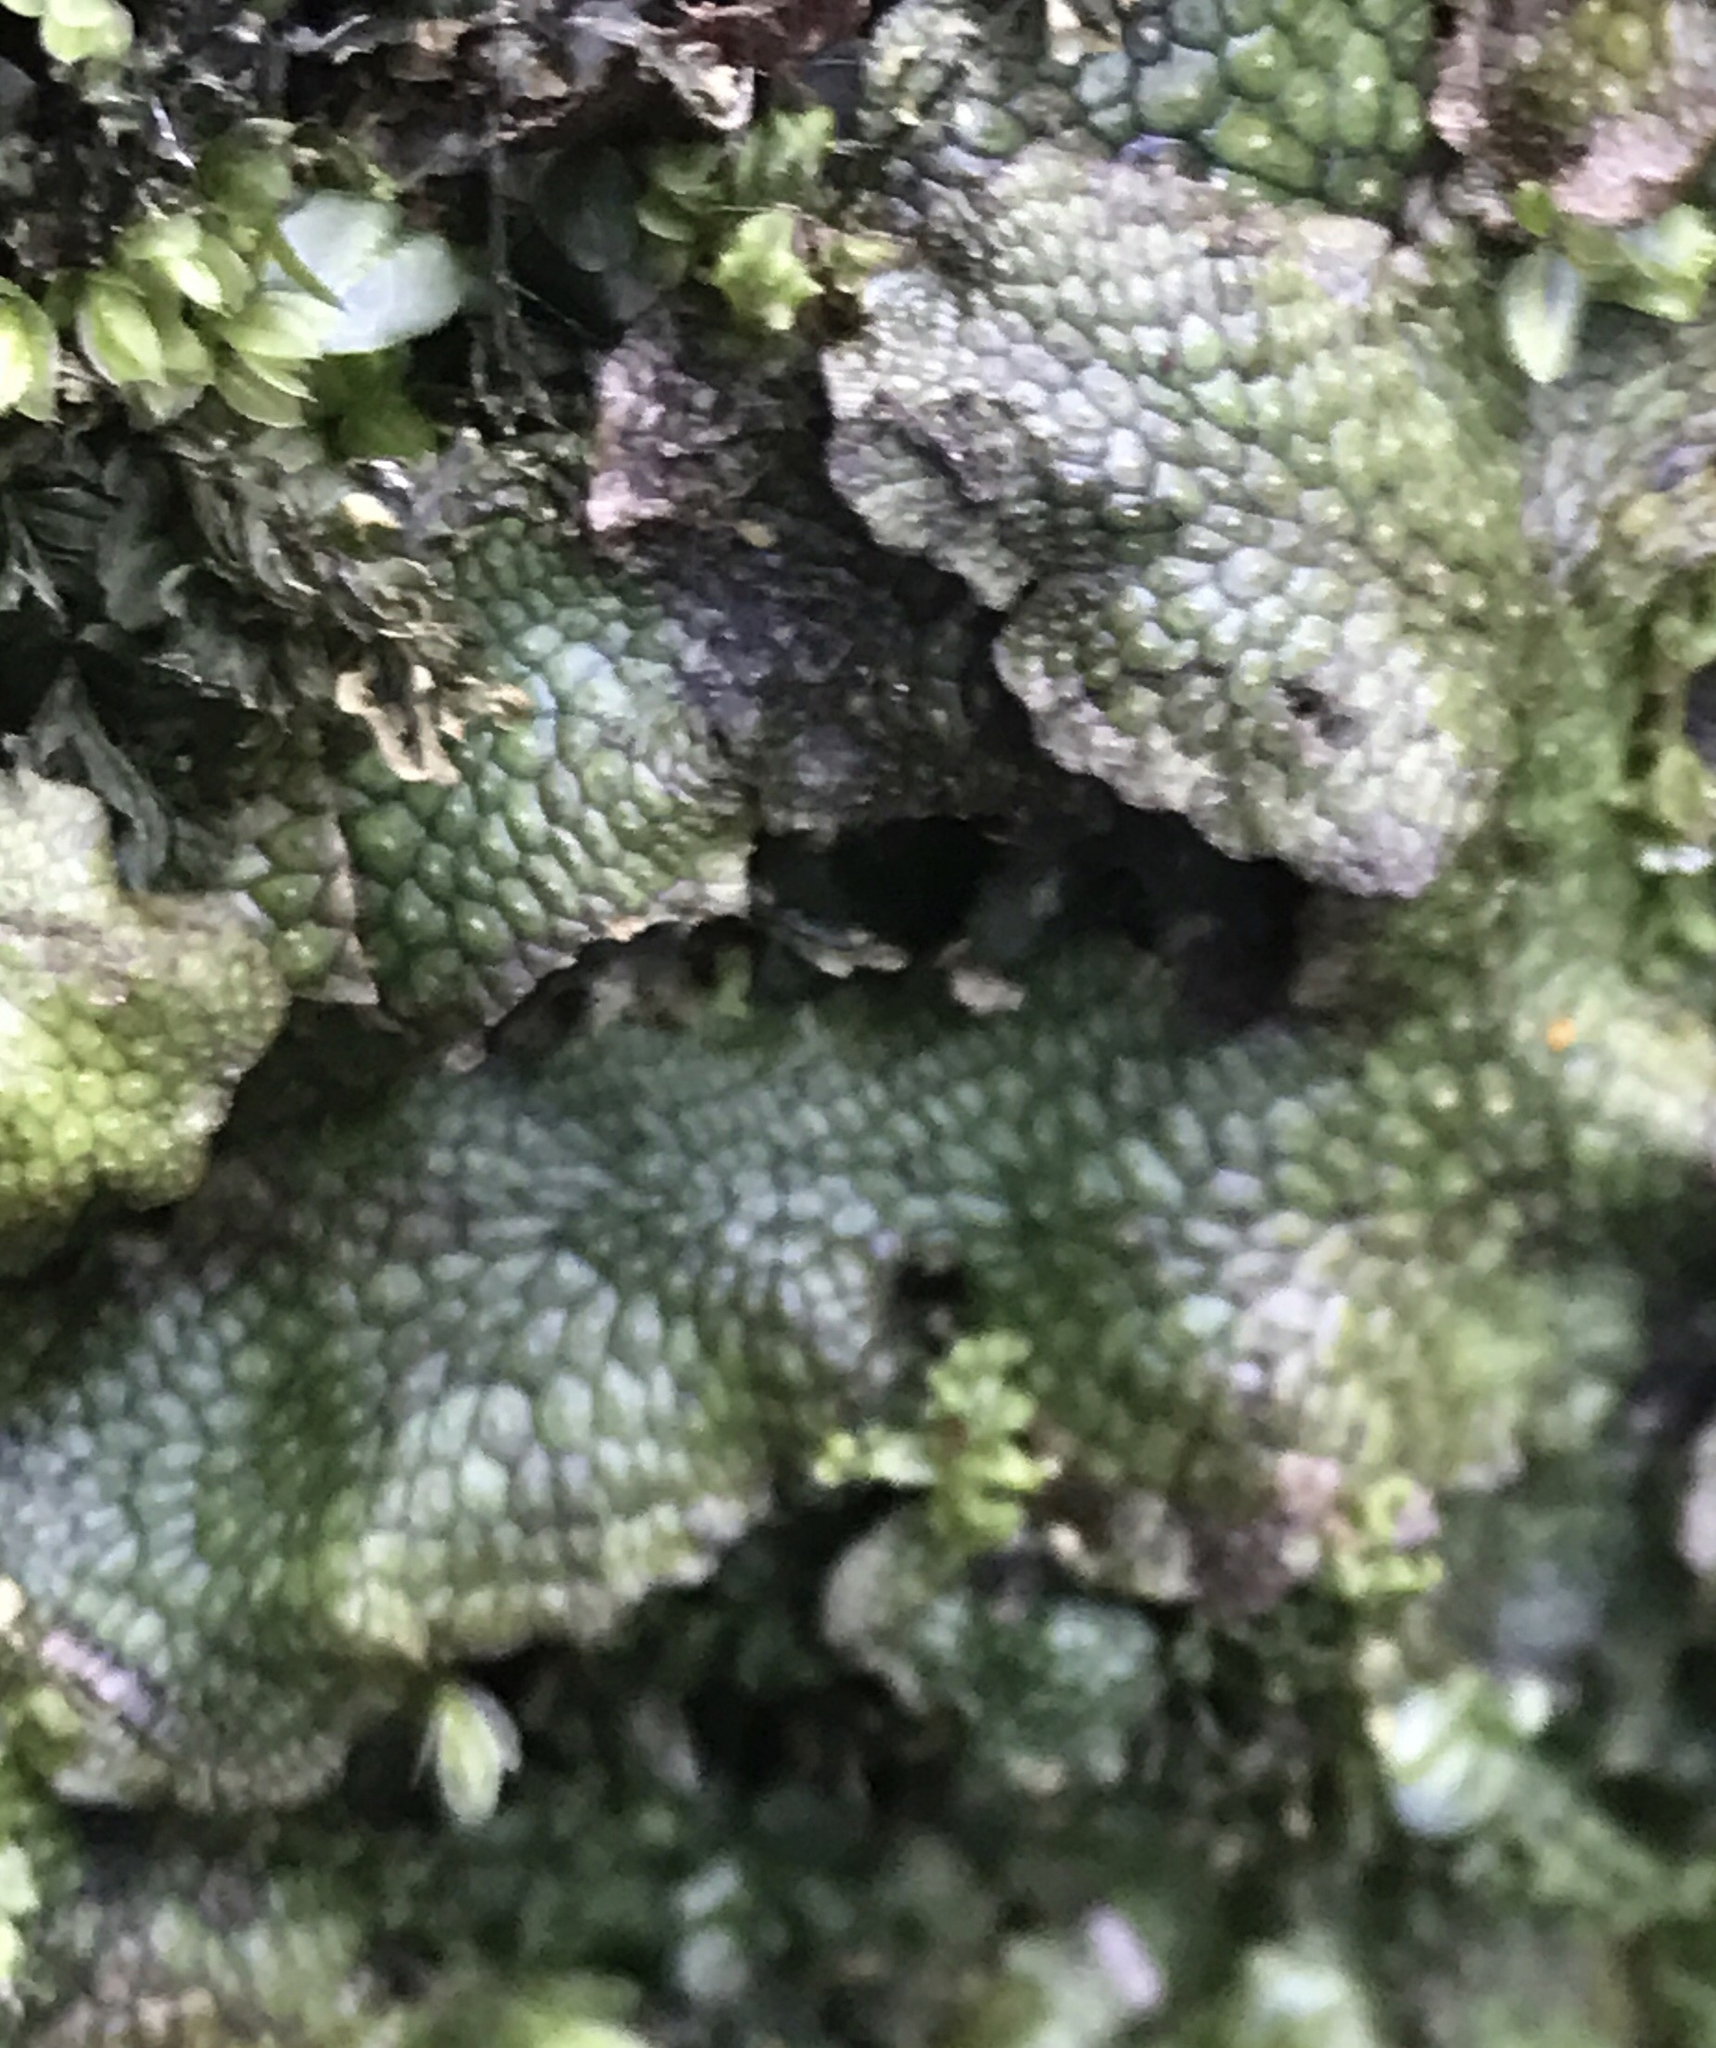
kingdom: Plantae
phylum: Marchantiophyta
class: Marchantiopsida
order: Marchantiales
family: Conocephalaceae
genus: Conocephalum
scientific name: Conocephalum salebrosum
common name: Cat-tongue liverwort
